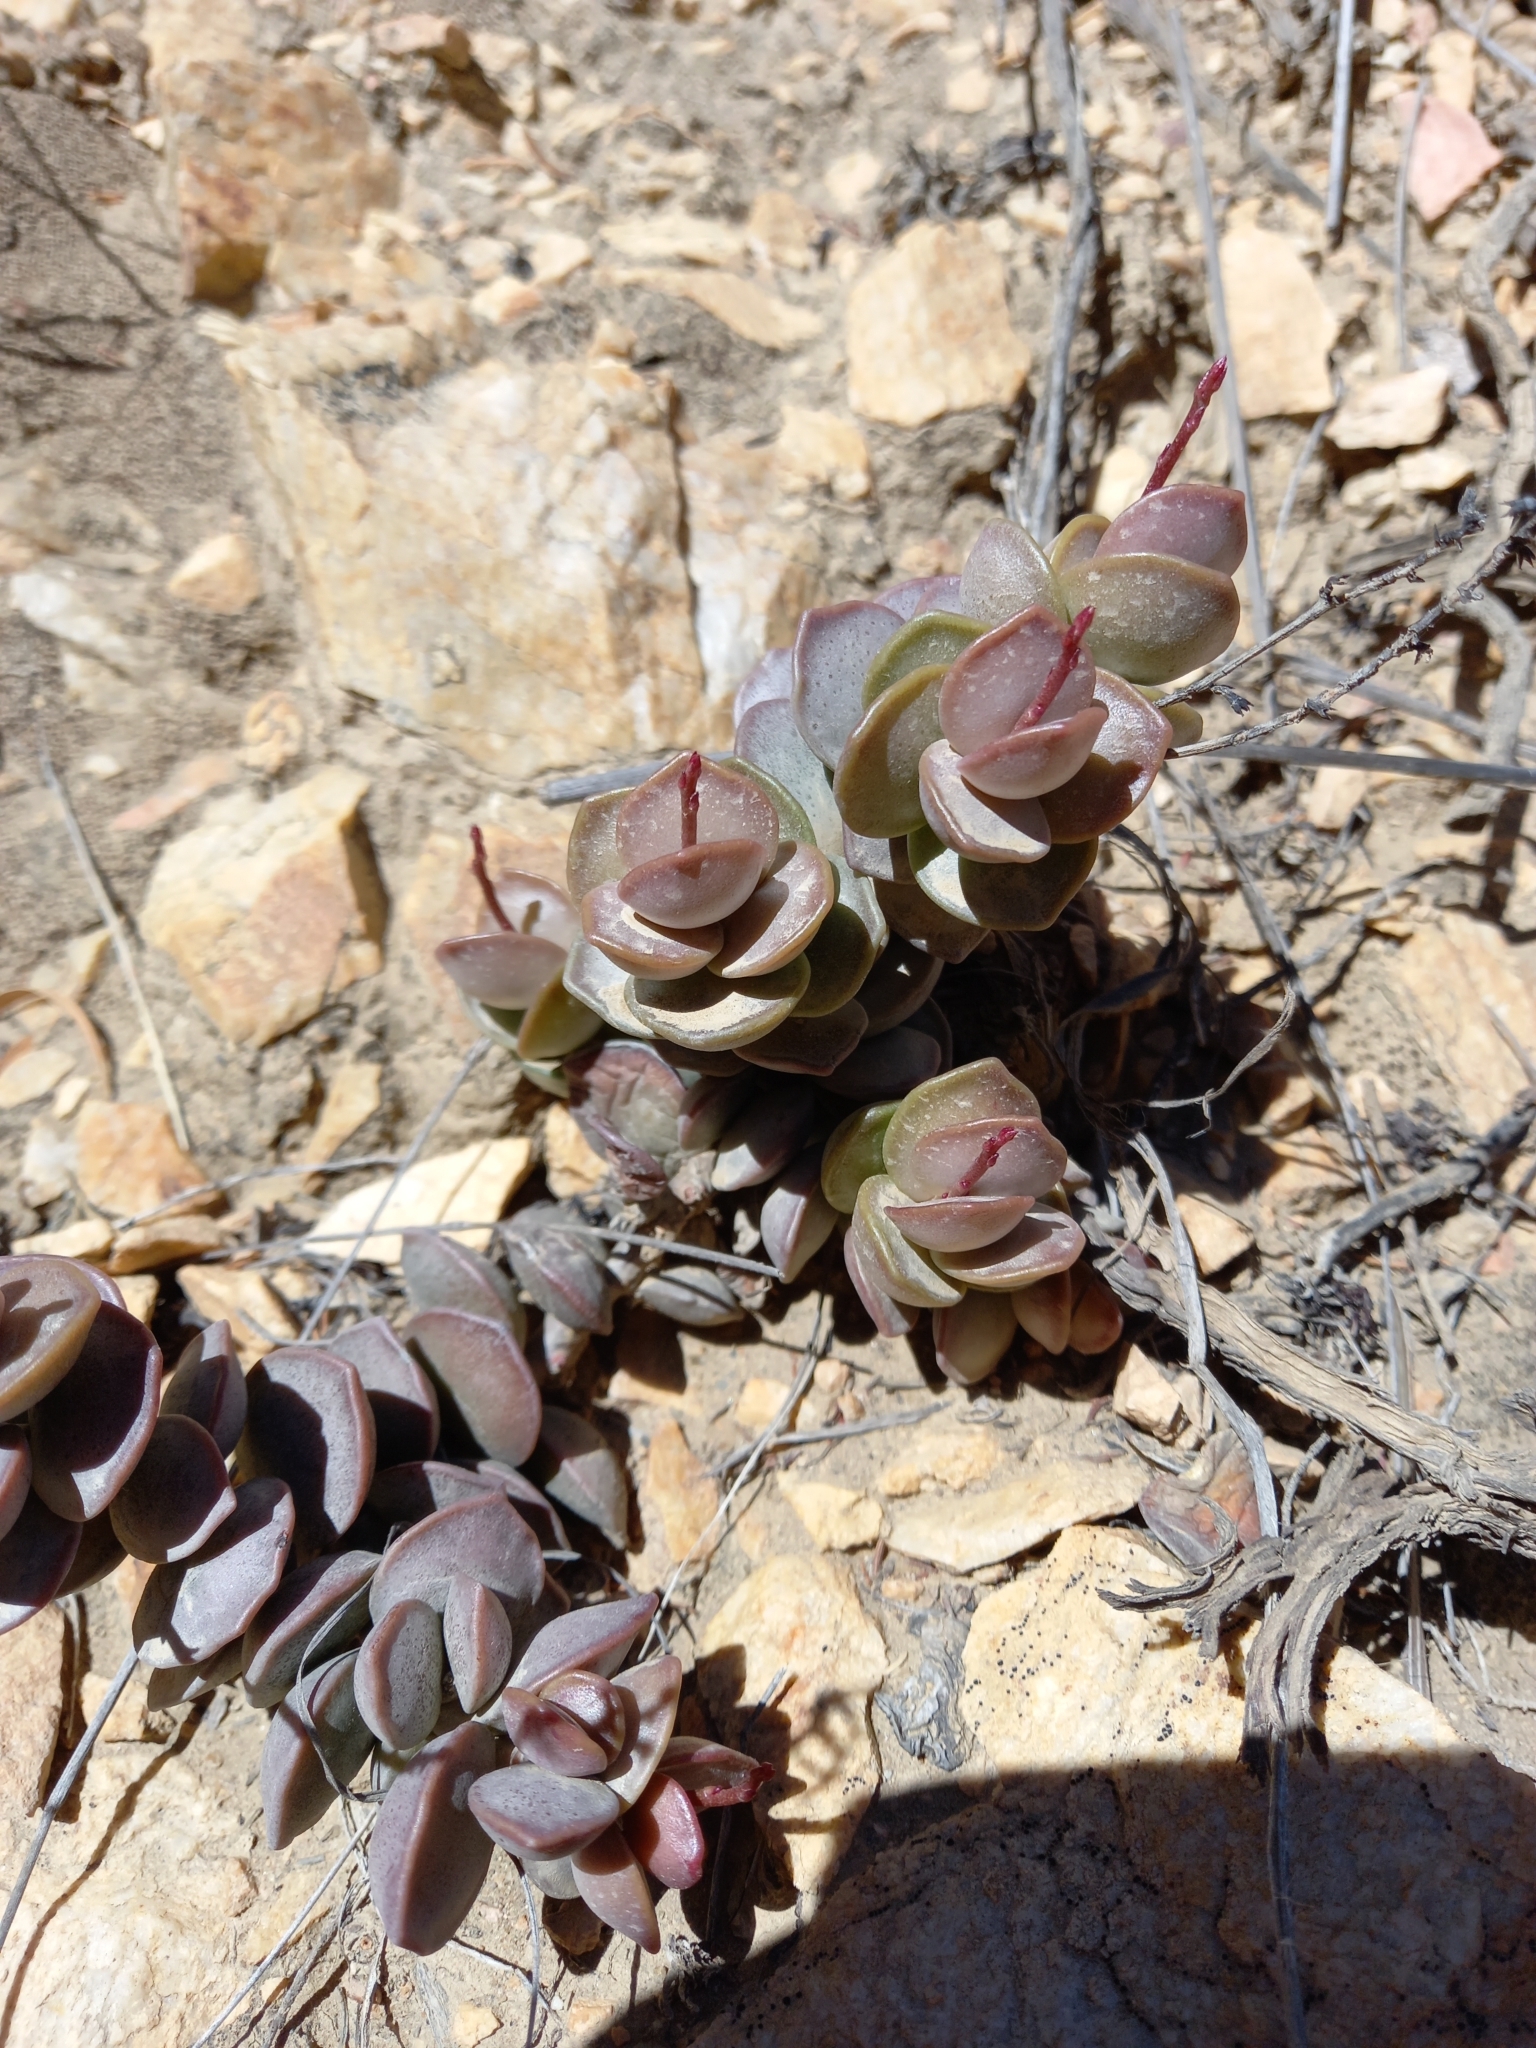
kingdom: Plantae
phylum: Tracheophyta
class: Magnoliopsida
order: Saxifragales
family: Crassulaceae
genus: Adromischus
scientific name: Adromischus subdistichus
